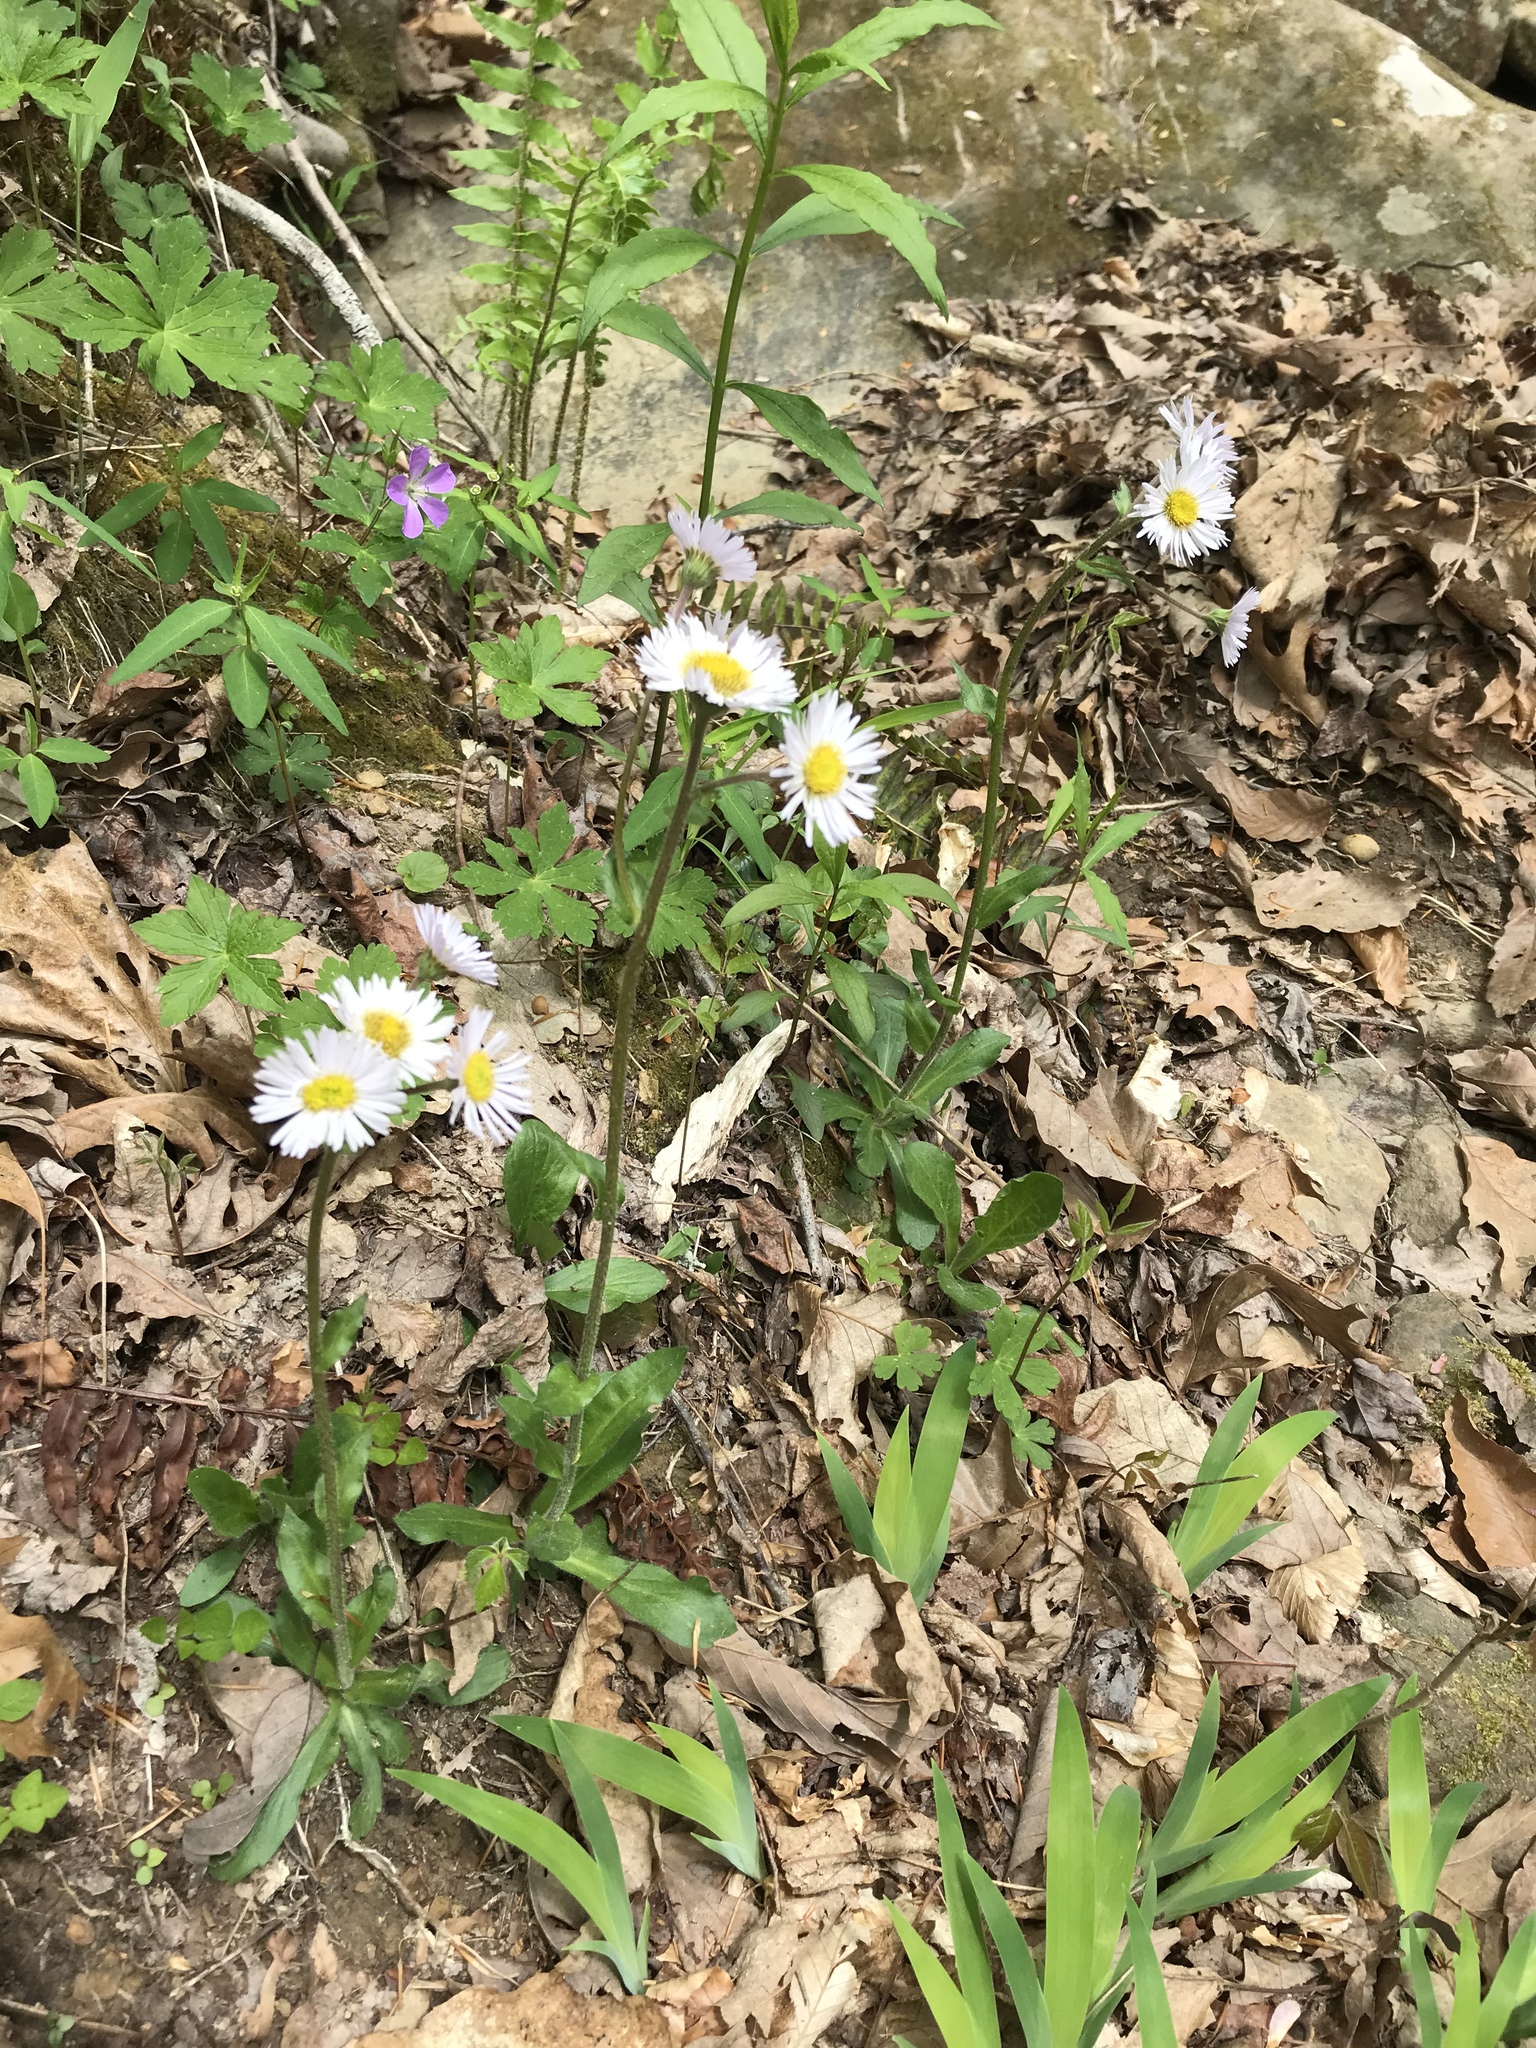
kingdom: Plantae
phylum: Tracheophyta
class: Magnoliopsida
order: Asterales
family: Asteraceae
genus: Erigeron
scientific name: Erigeron pulchellus
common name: Hairy fleabane
